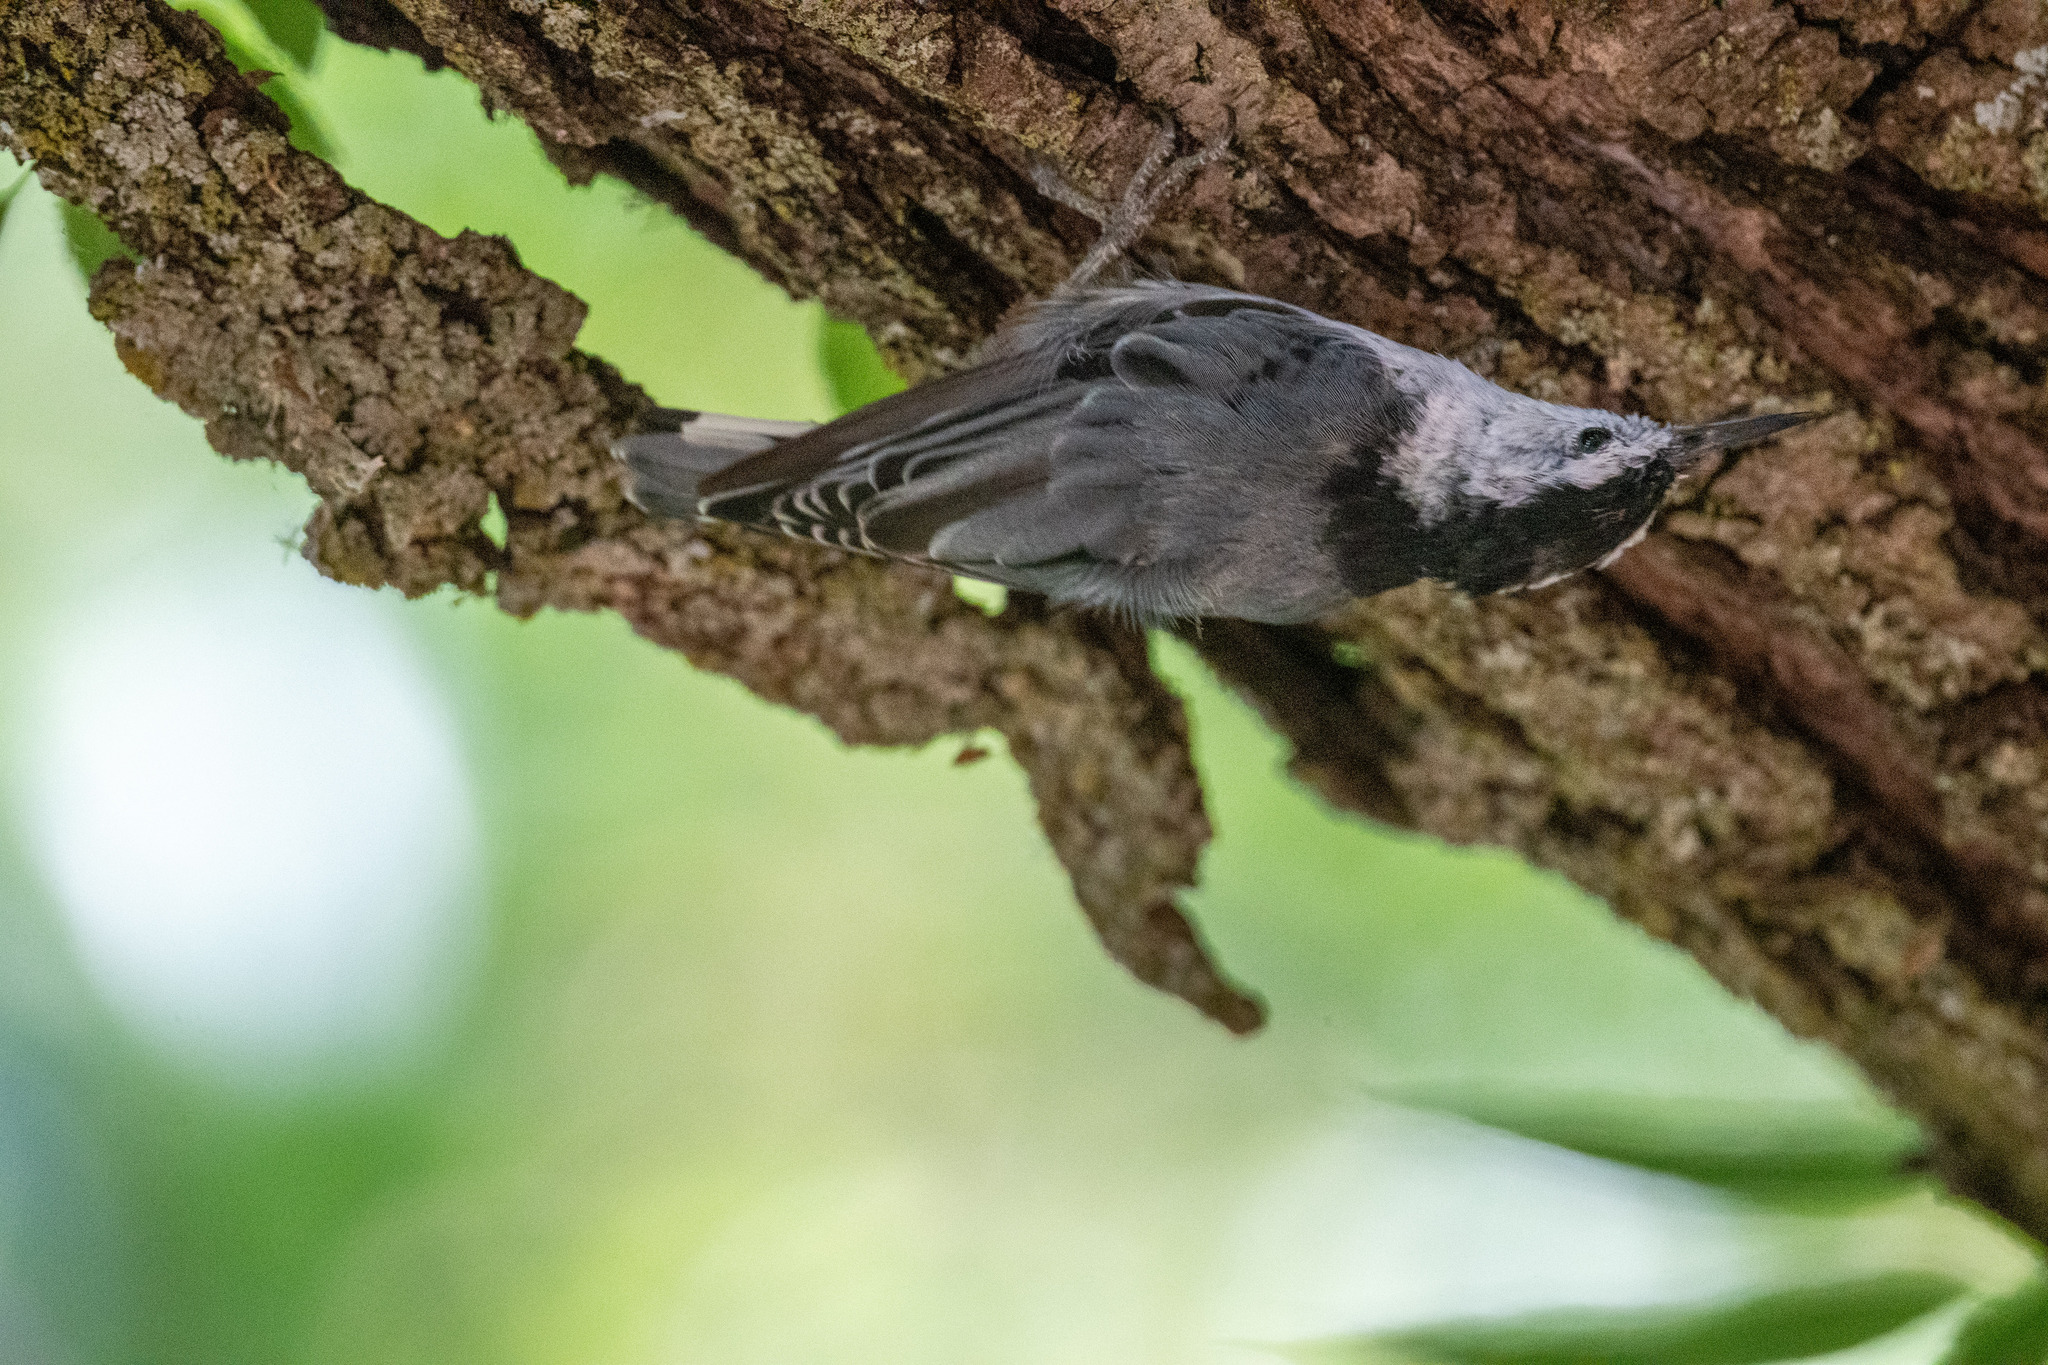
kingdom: Animalia
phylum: Chordata
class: Aves
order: Passeriformes
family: Sittidae
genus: Sitta
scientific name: Sitta carolinensis
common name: White-breasted nuthatch
